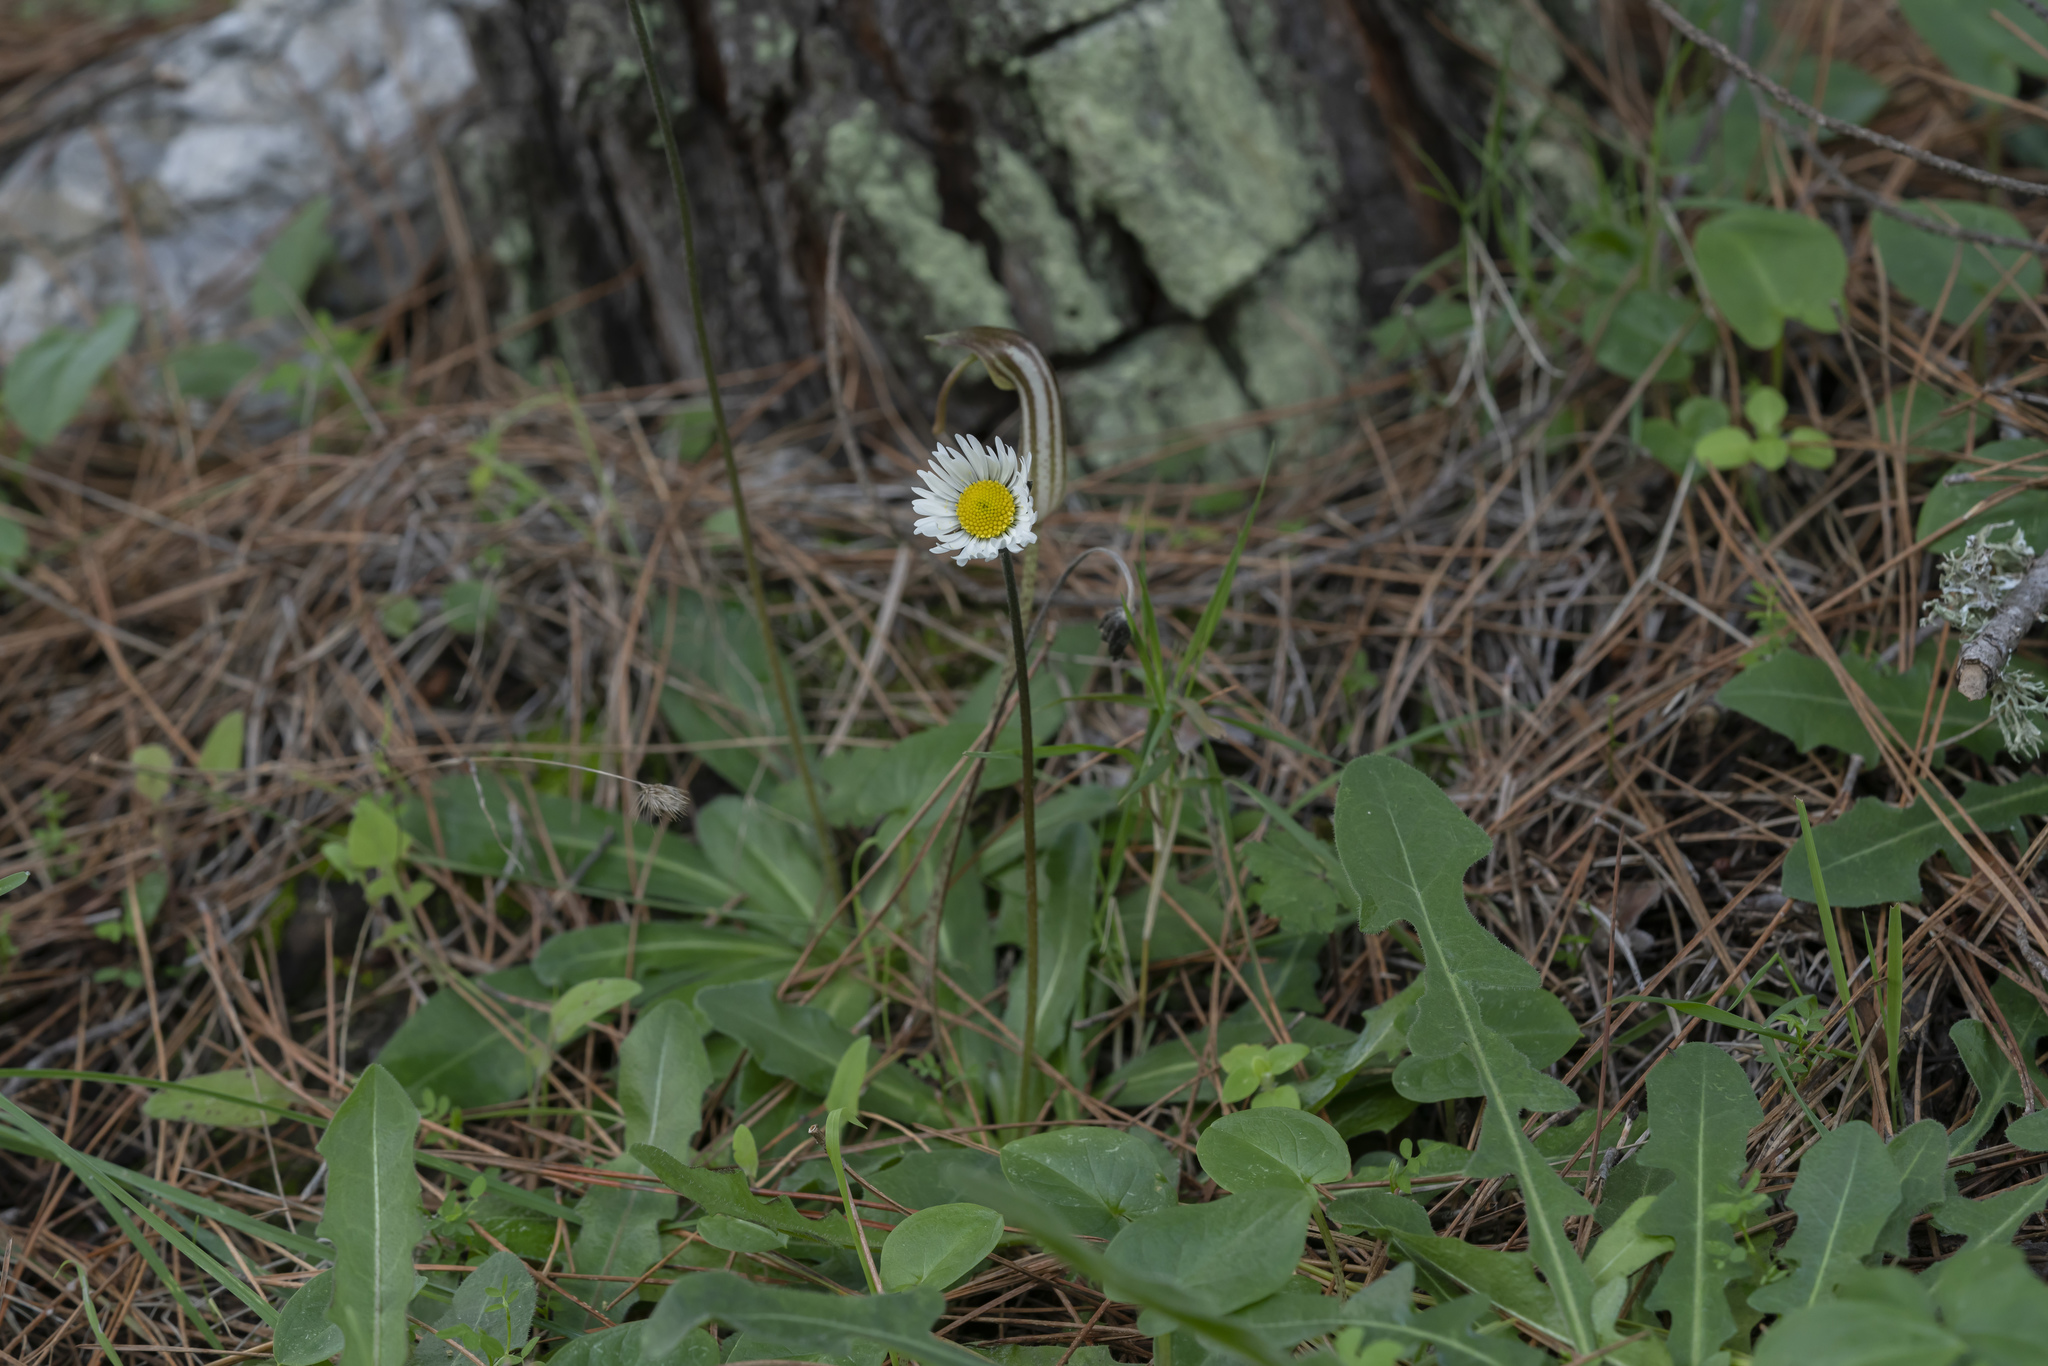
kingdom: Plantae
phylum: Tracheophyta
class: Magnoliopsida
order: Asterales
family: Asteraceae
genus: Bellis
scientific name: Bellis sylvestris
